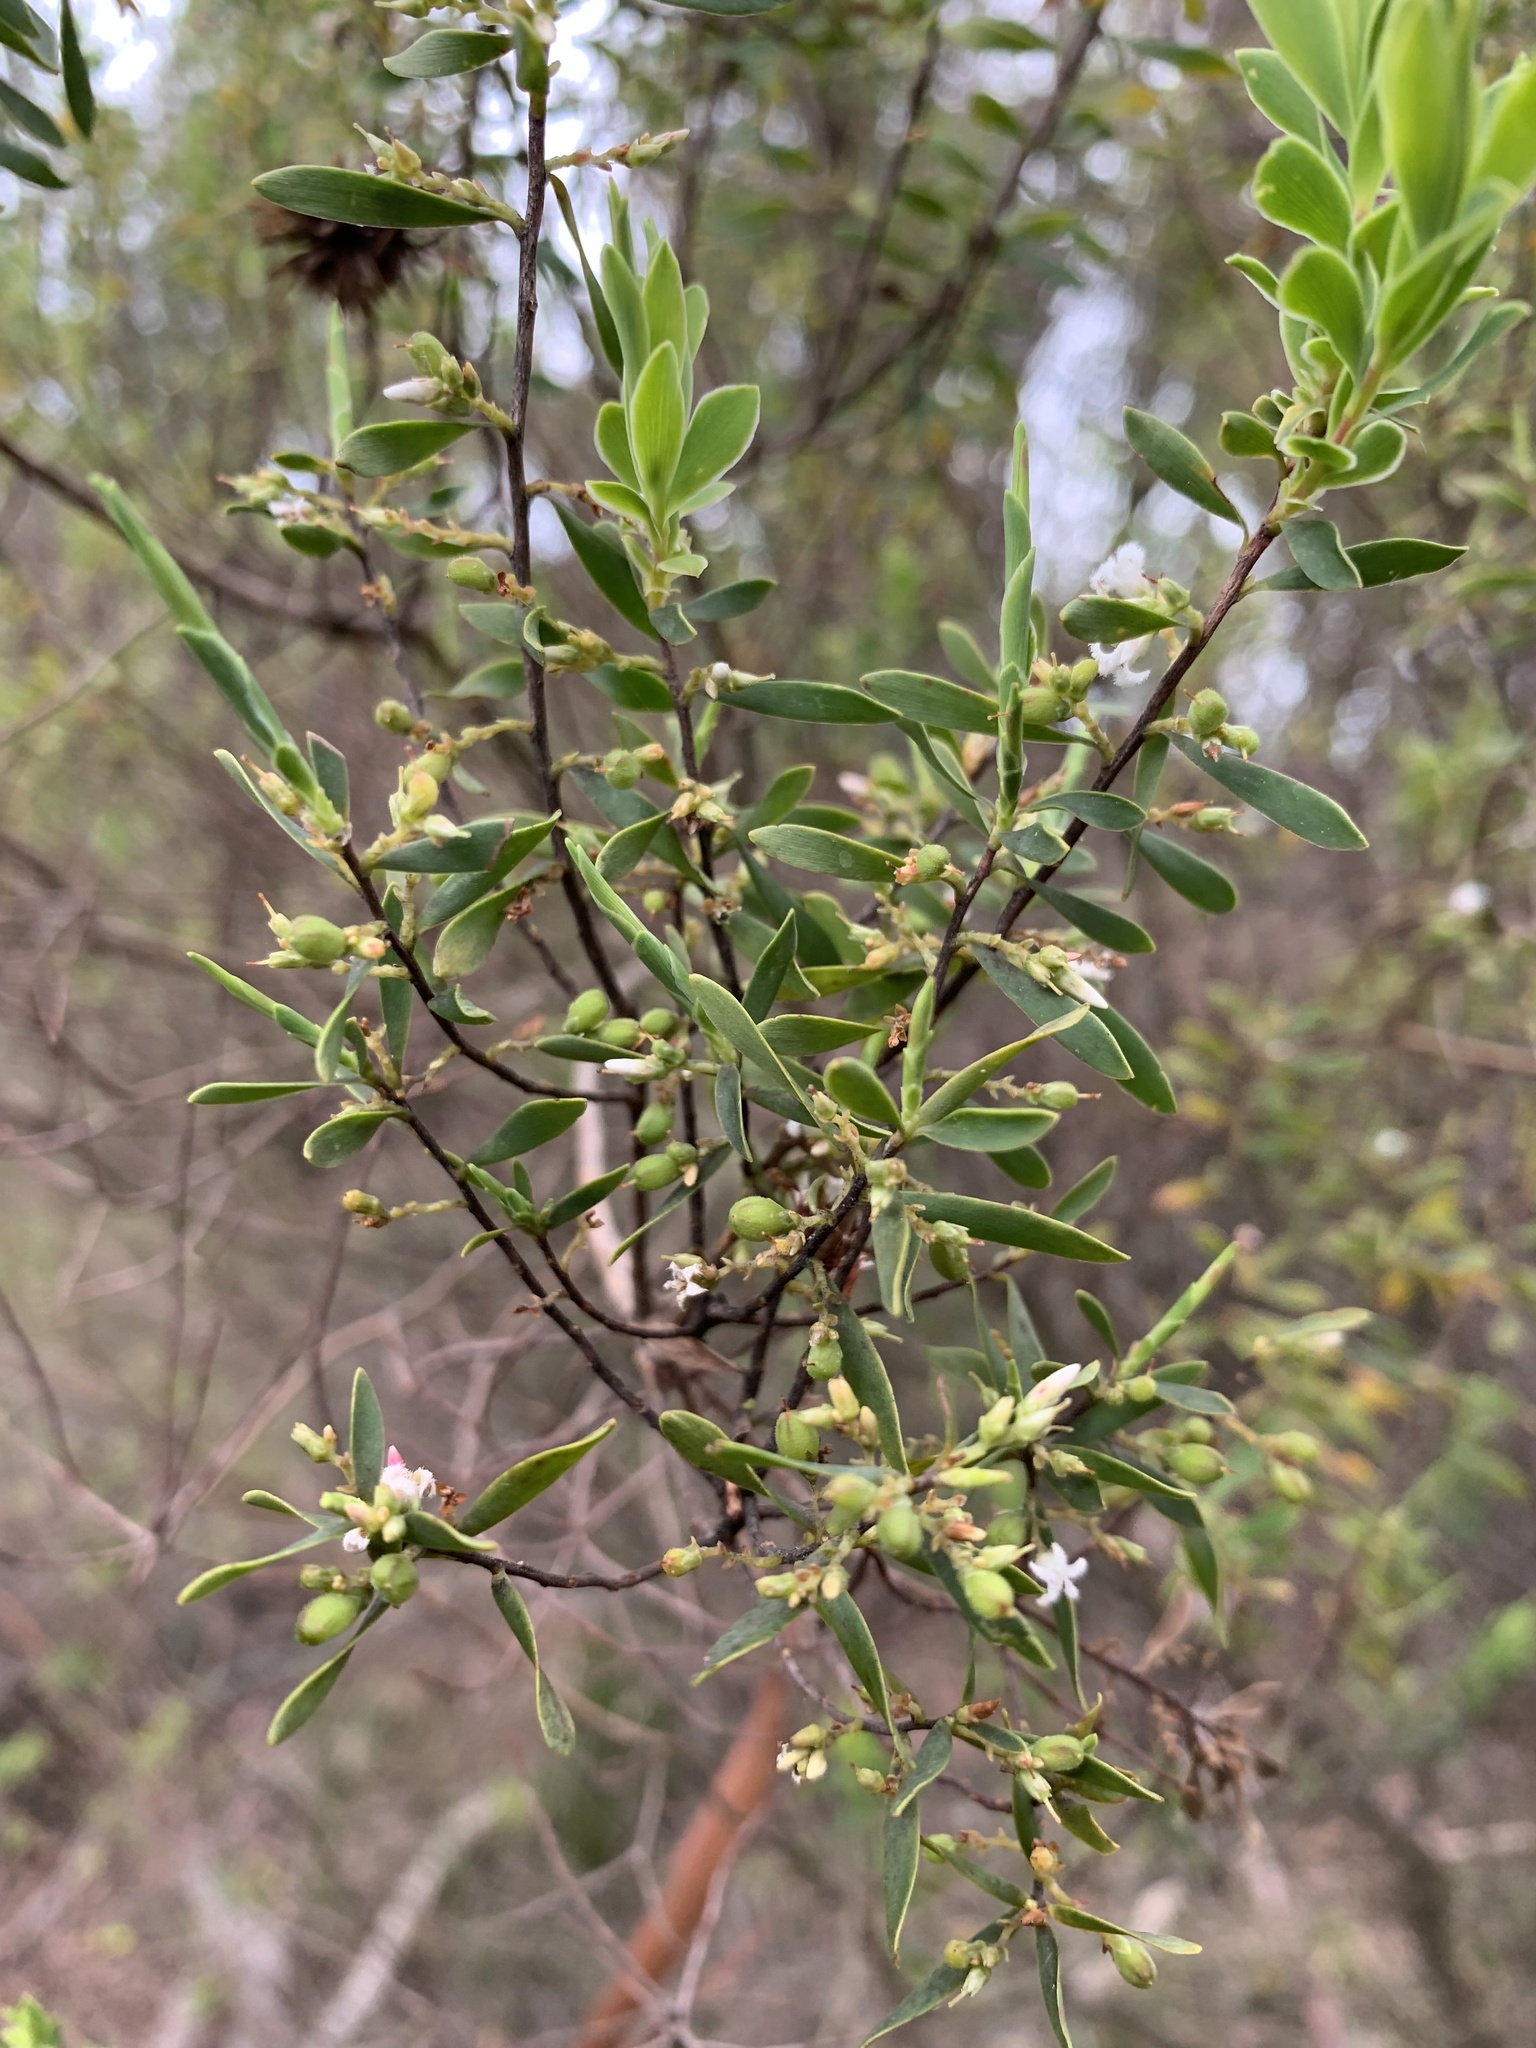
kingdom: Plantae
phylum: Tracheophyta
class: Magnoliopsida
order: Ericales
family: Ericaceae
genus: Styphelia
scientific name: Styphelia mutica
